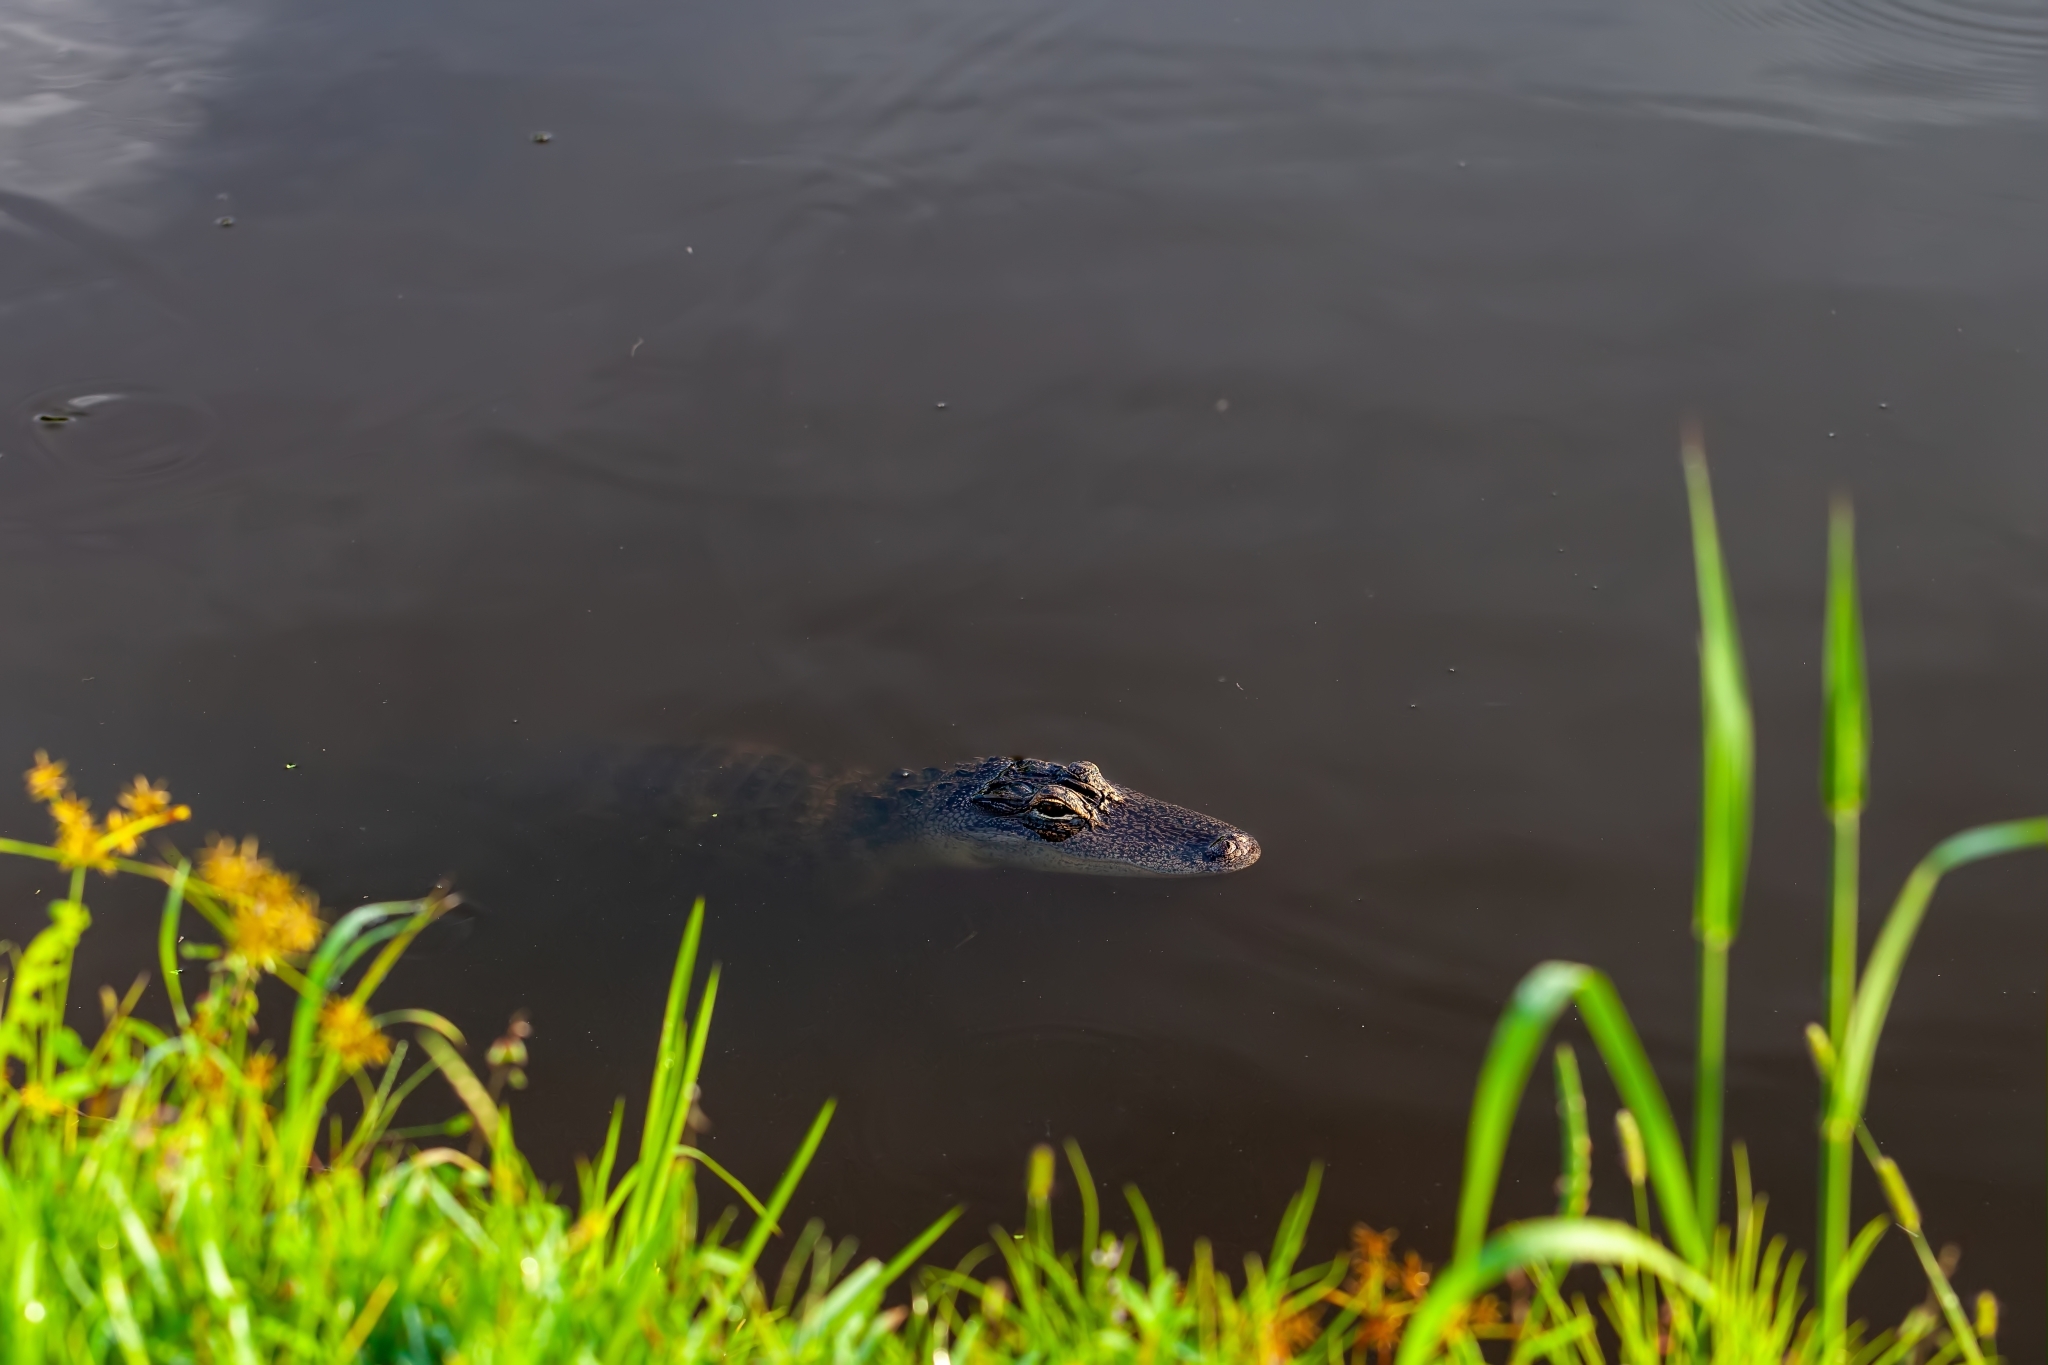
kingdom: Animalia
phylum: Chordata
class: Crocodylia
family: Alligatoridae
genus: Alligator
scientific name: Alligator mississippiensis
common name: American alligator
